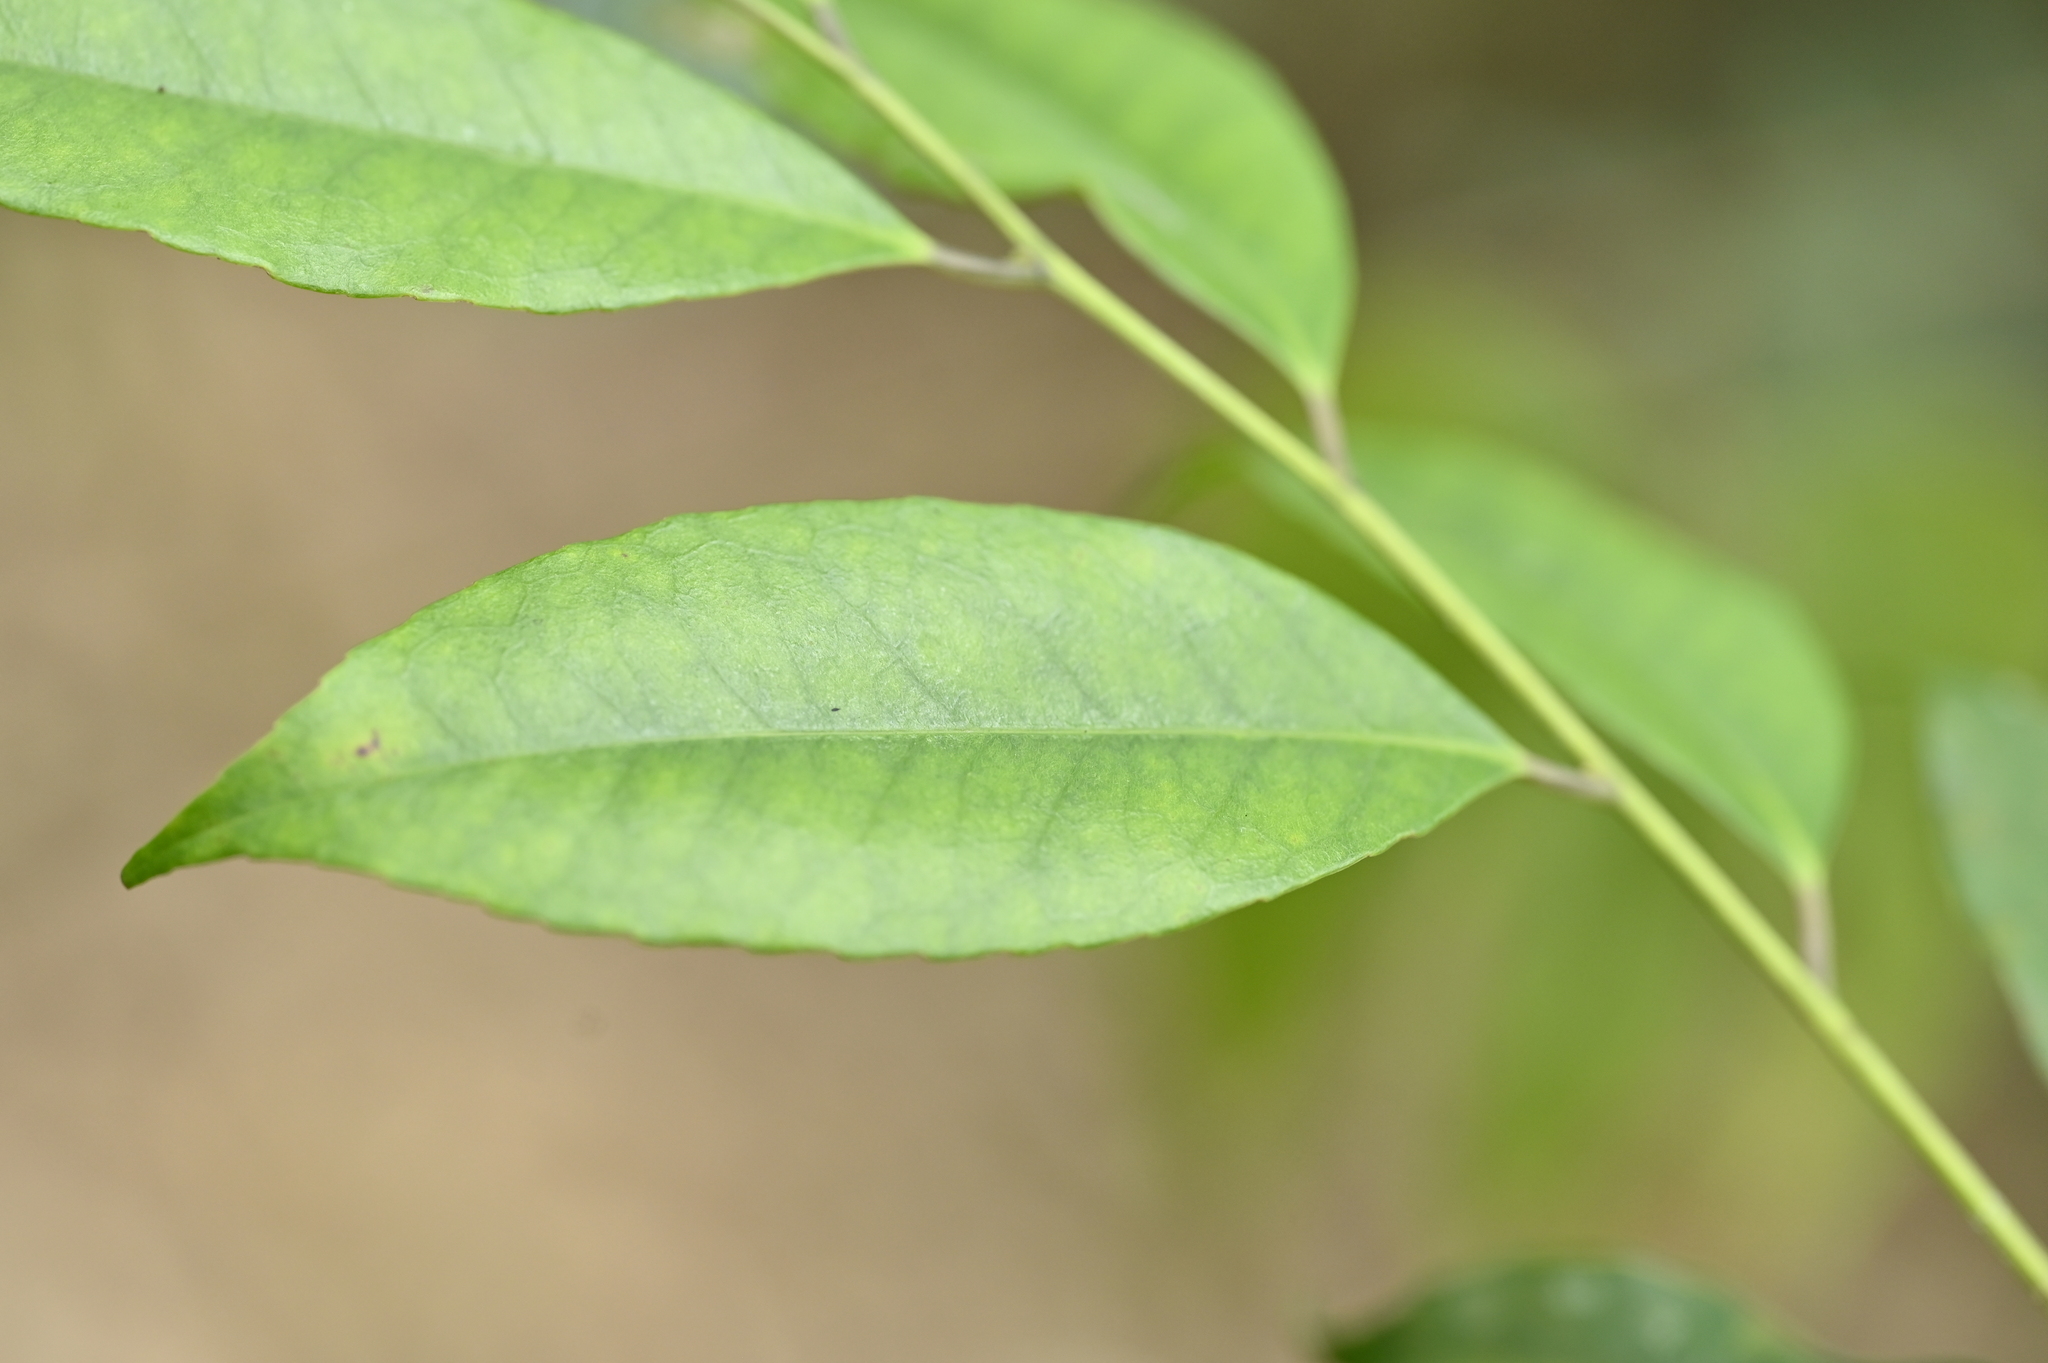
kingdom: Plantae
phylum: Tracheophyta
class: Magnoliopsida
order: Aquifoliales
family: Aquifoliaceae
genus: Ilex
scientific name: Ilex ficoidea
